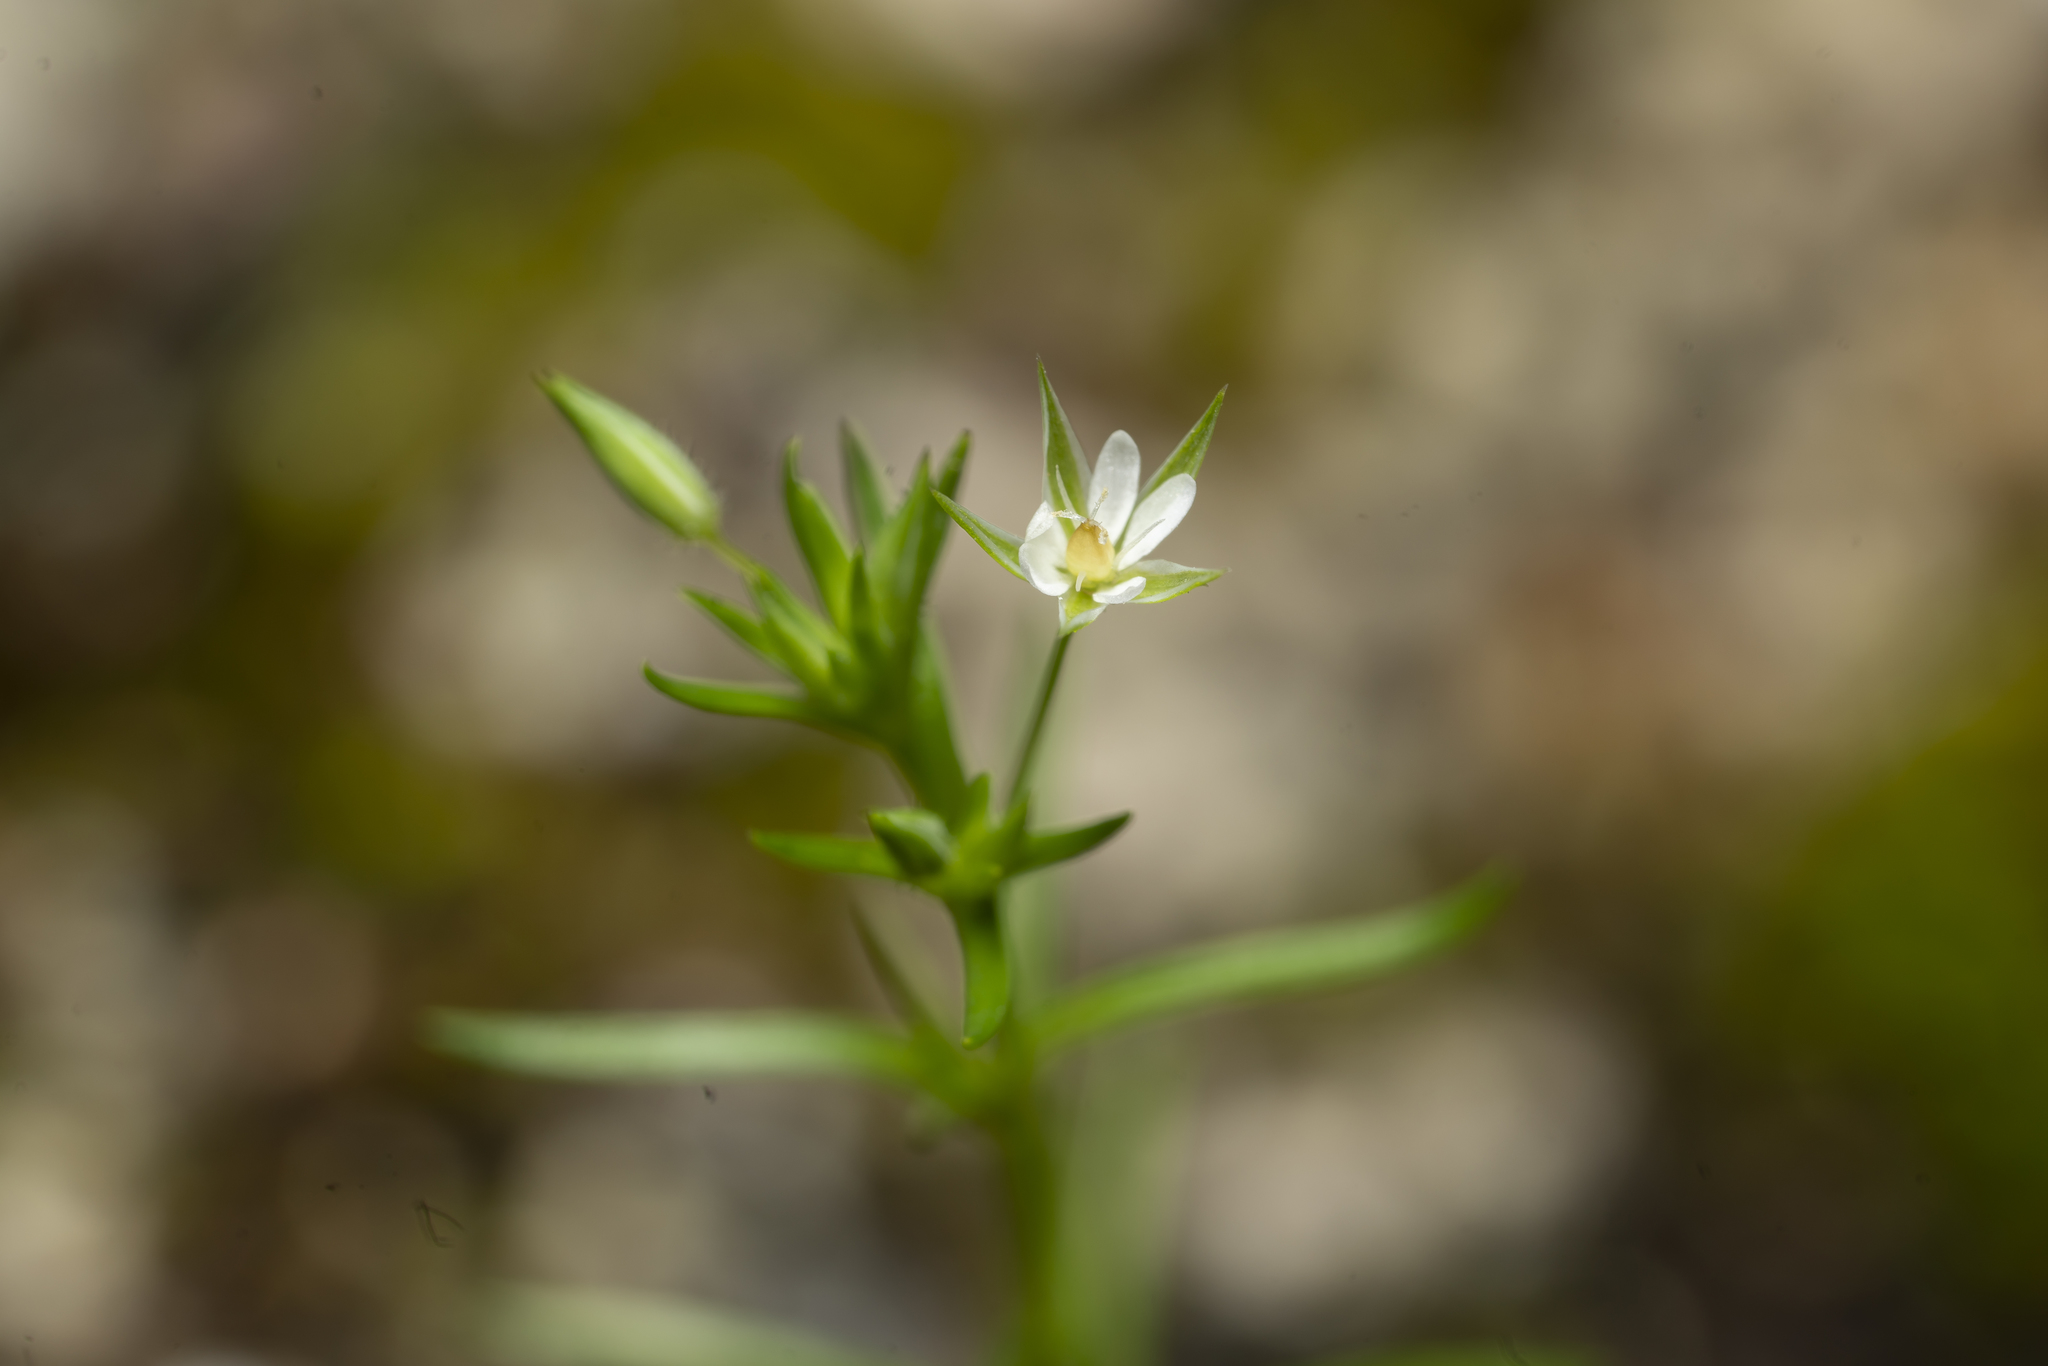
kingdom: Plantae
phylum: Tracheophyta
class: Magnoliopsida
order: Caryophyllales
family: Caryophyllaceae
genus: Sabulina
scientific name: Sabulina tenuifolia
